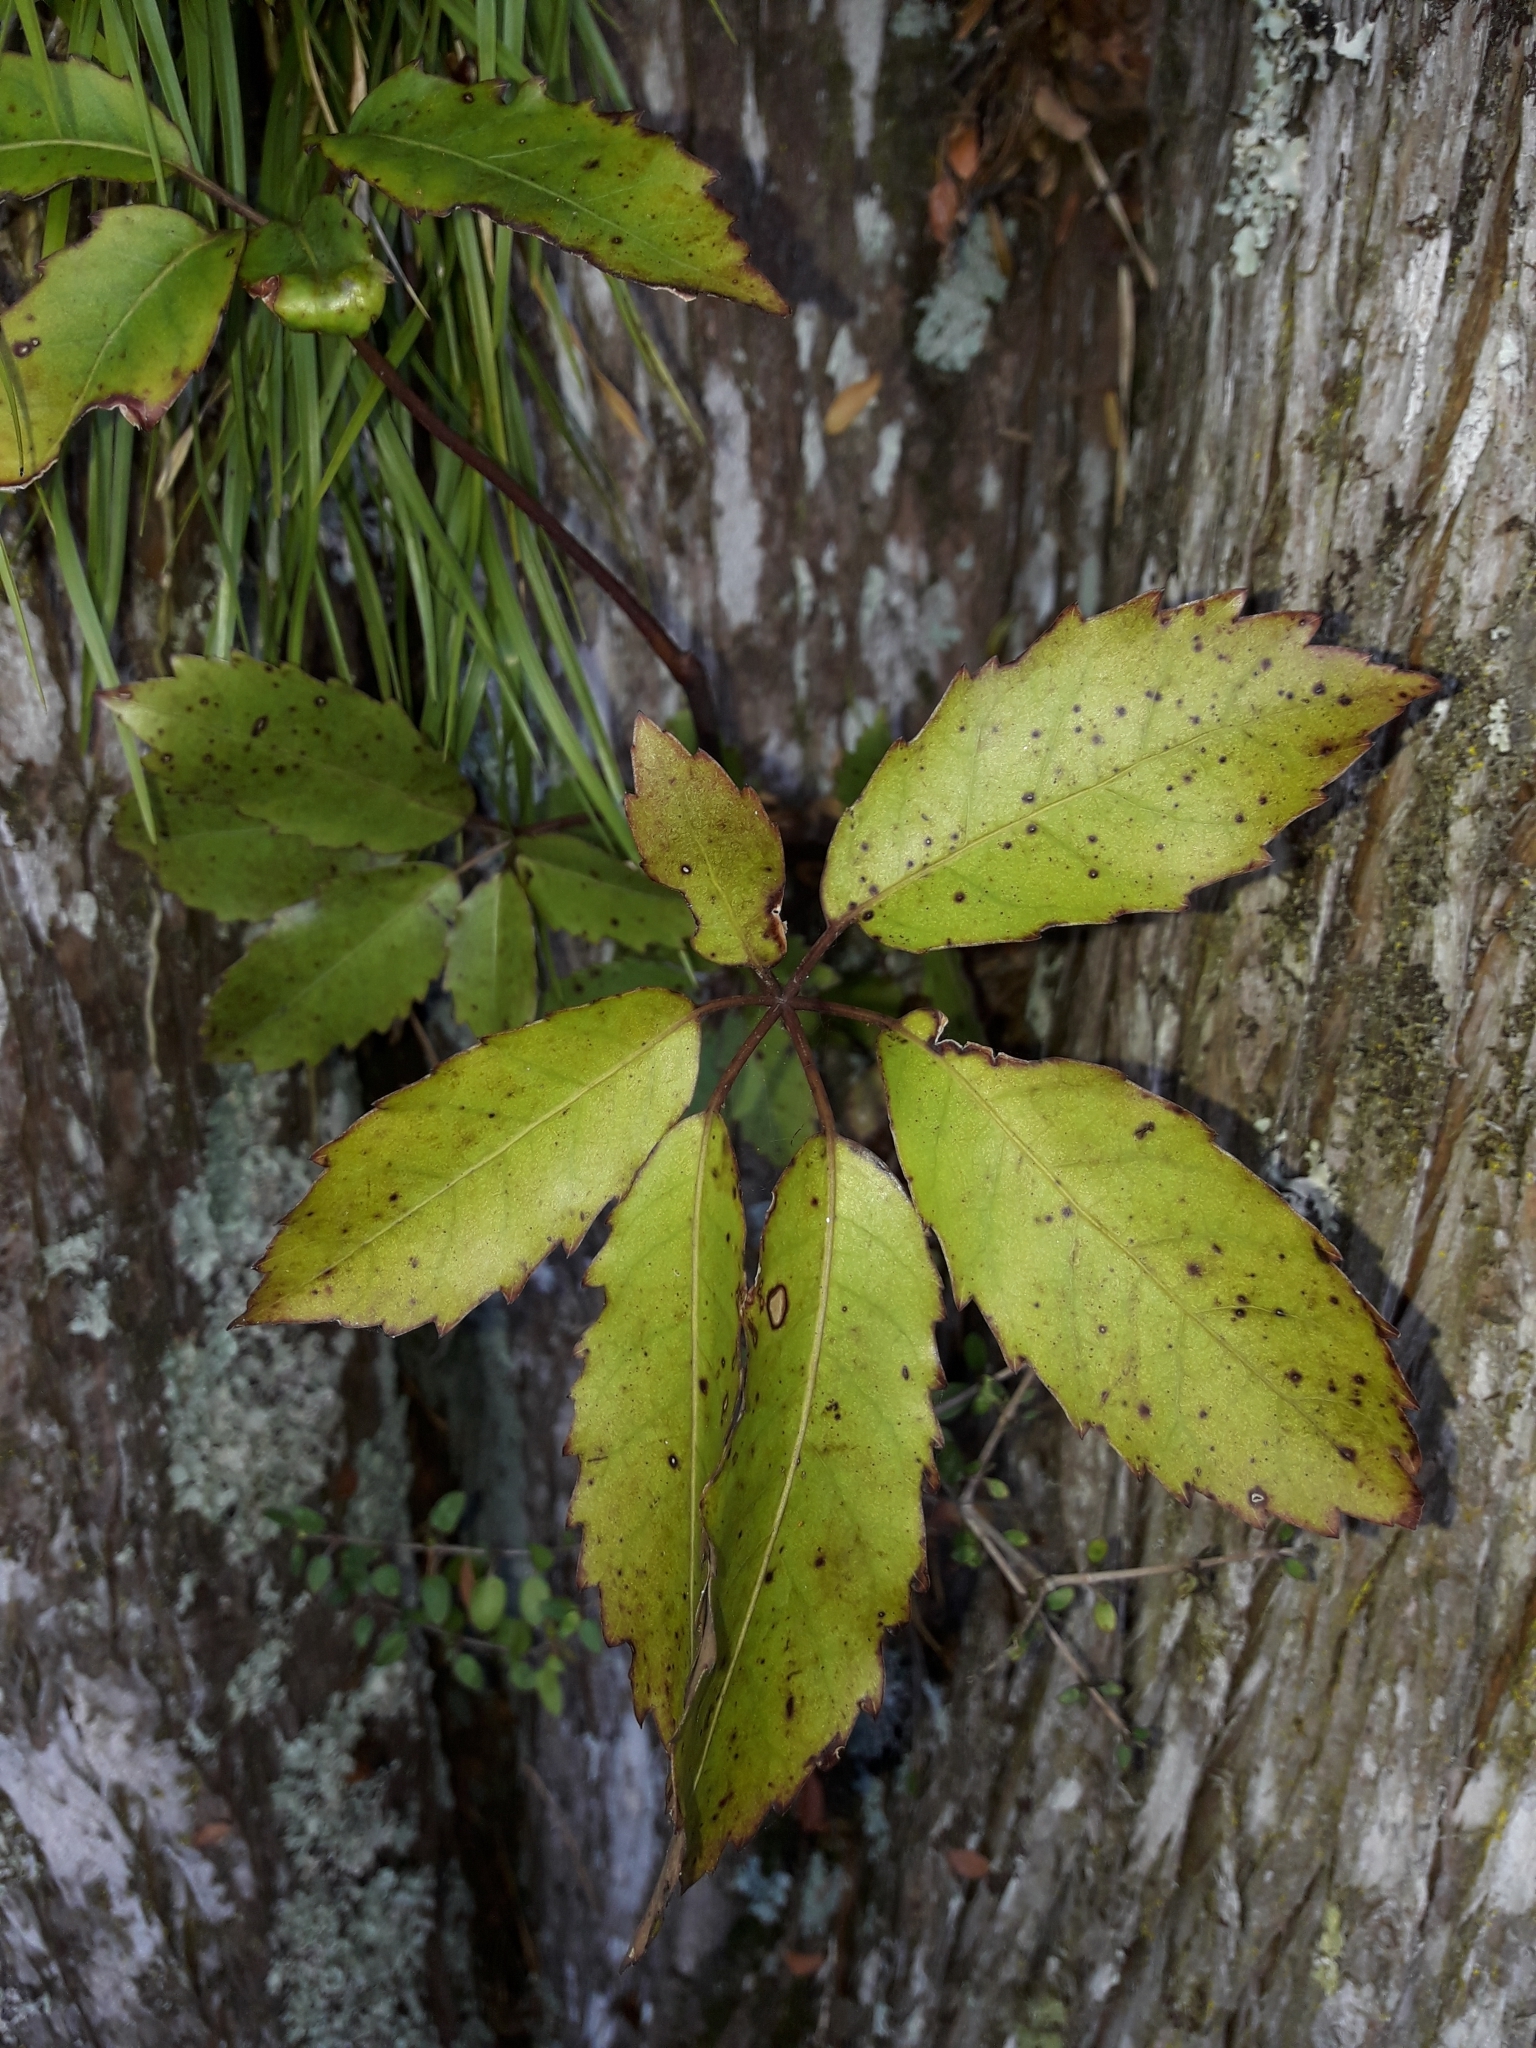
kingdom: Plantae
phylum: Tracheophyta
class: Magnoliopsida
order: Apiales
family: Araliaceae
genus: Neopanax
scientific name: Neopanax arboreus
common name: Five-fingers
